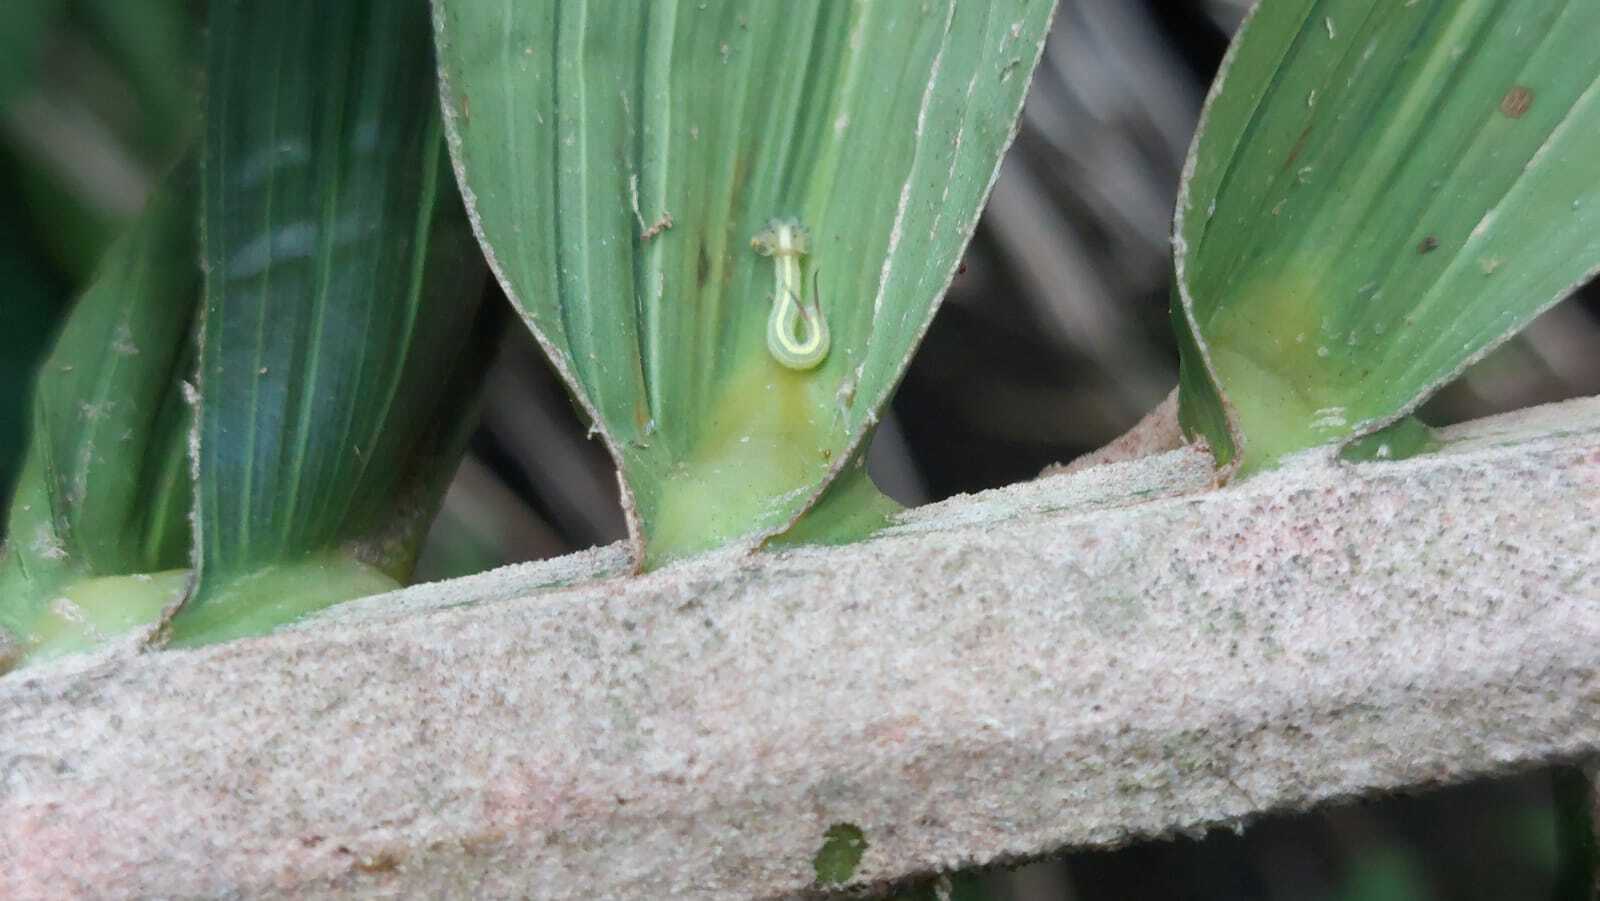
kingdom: Animalia
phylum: Arthropoda
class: Insecta
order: Lepidoptera
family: Nymphalidae
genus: Opsiphanes
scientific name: Opsiphanes cassina
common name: Split-banded owl-butterfly
